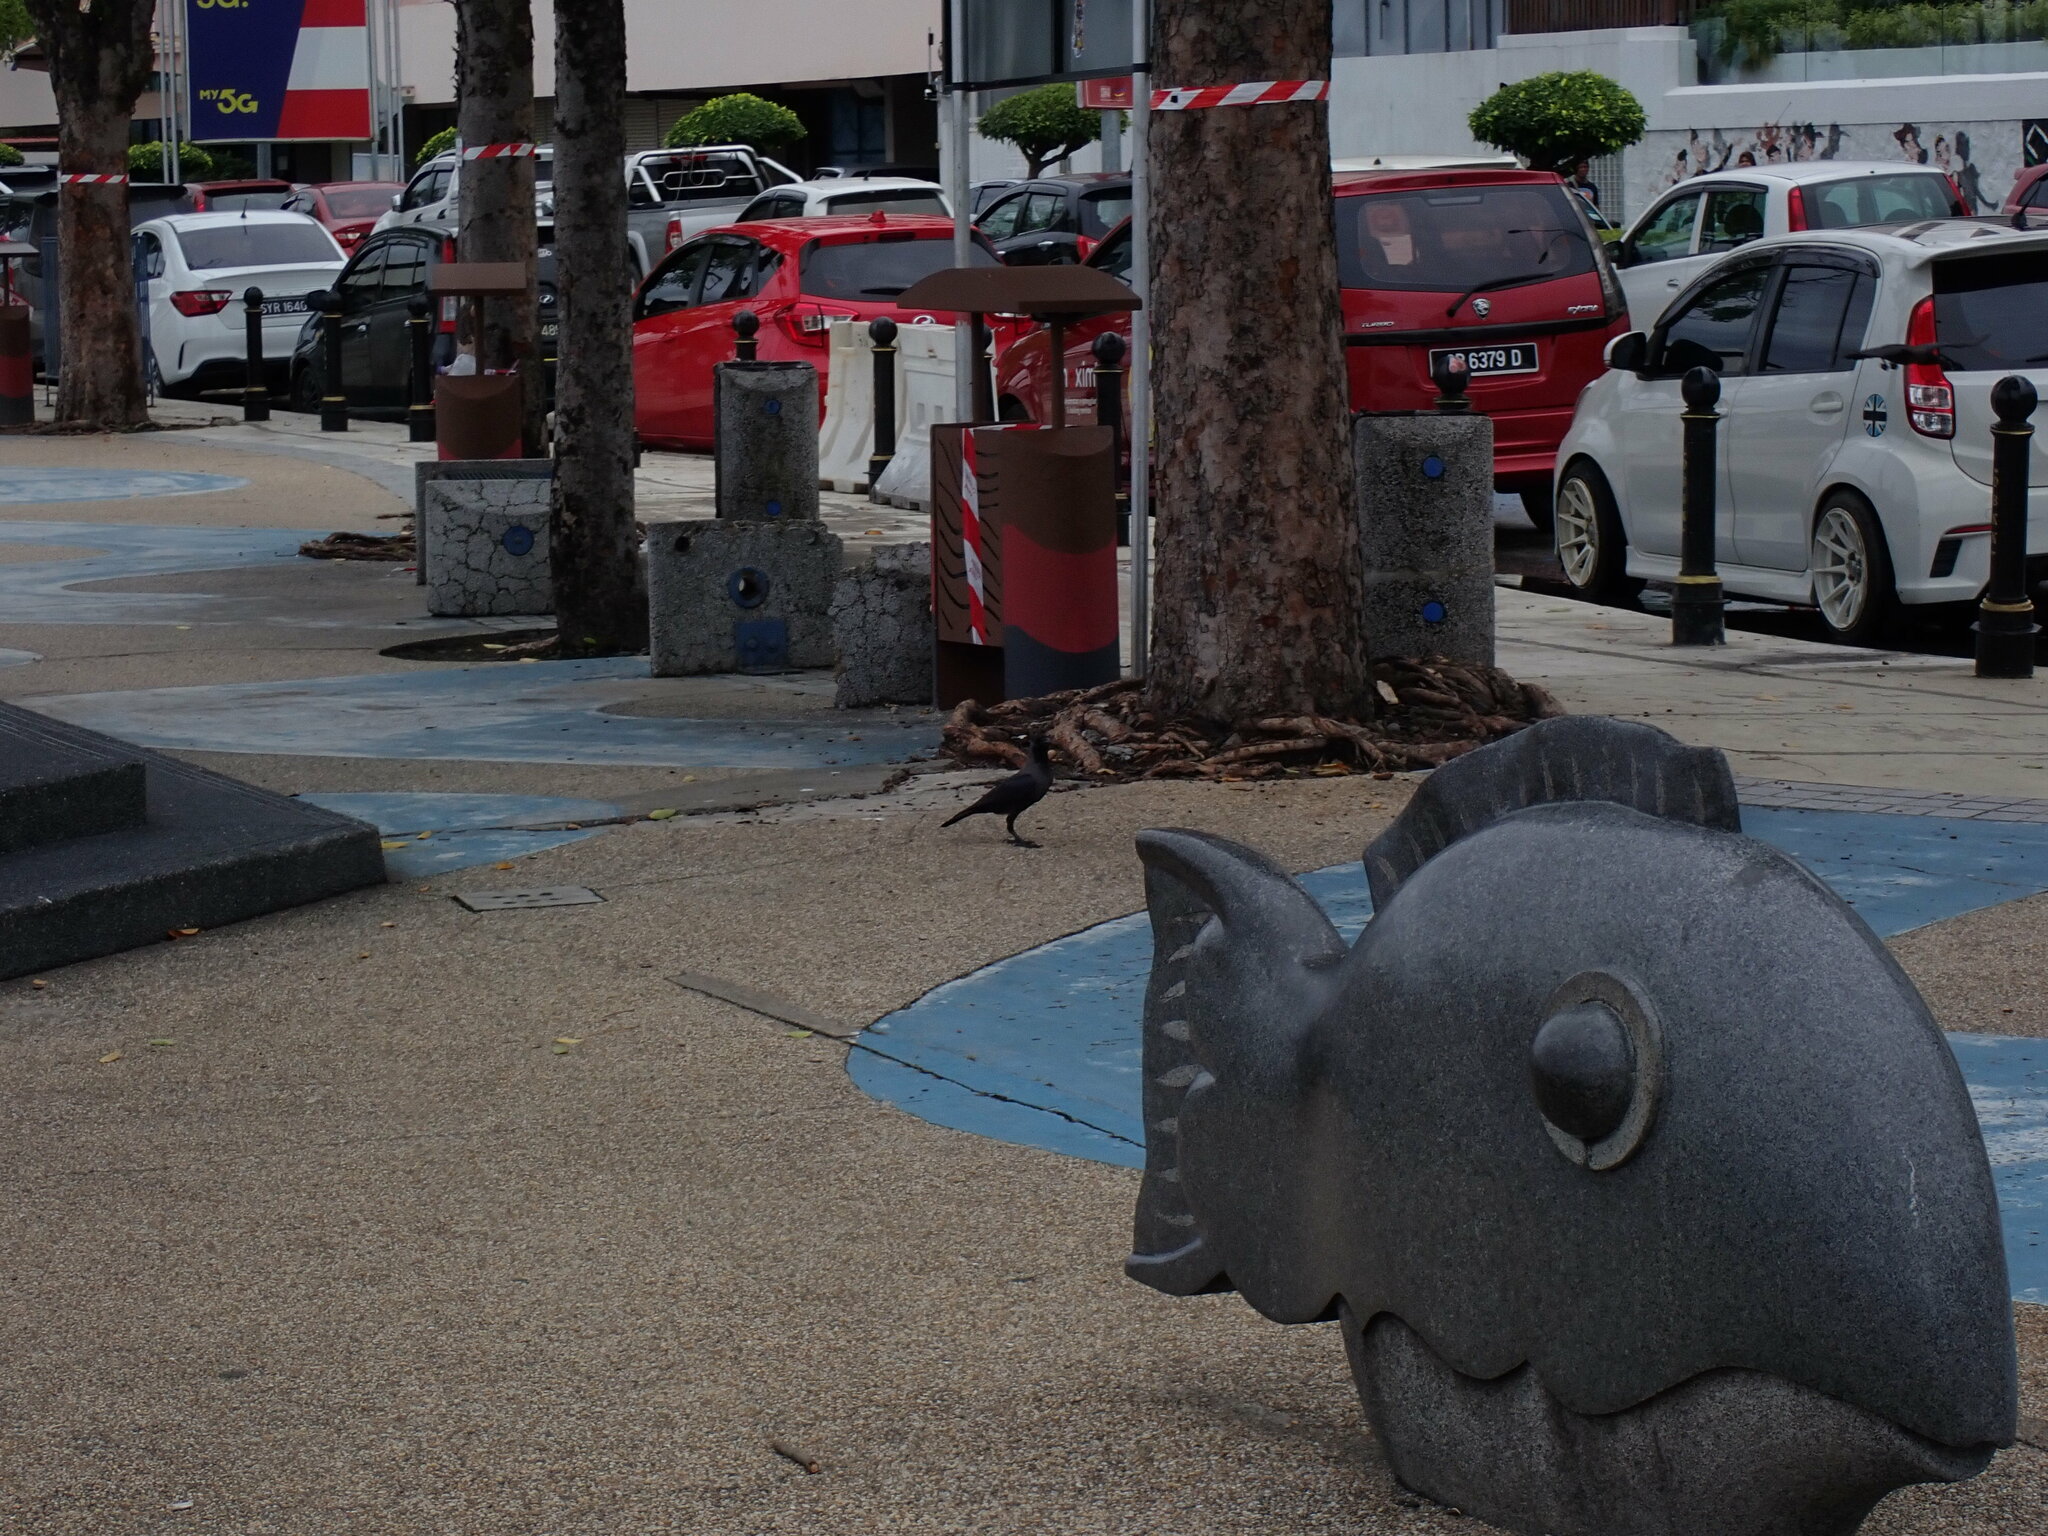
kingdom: Animalia
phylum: Chordata
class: Aves
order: Passeriformes
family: Corvidae
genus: Corvus
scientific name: Corvus splendens
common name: House crow
